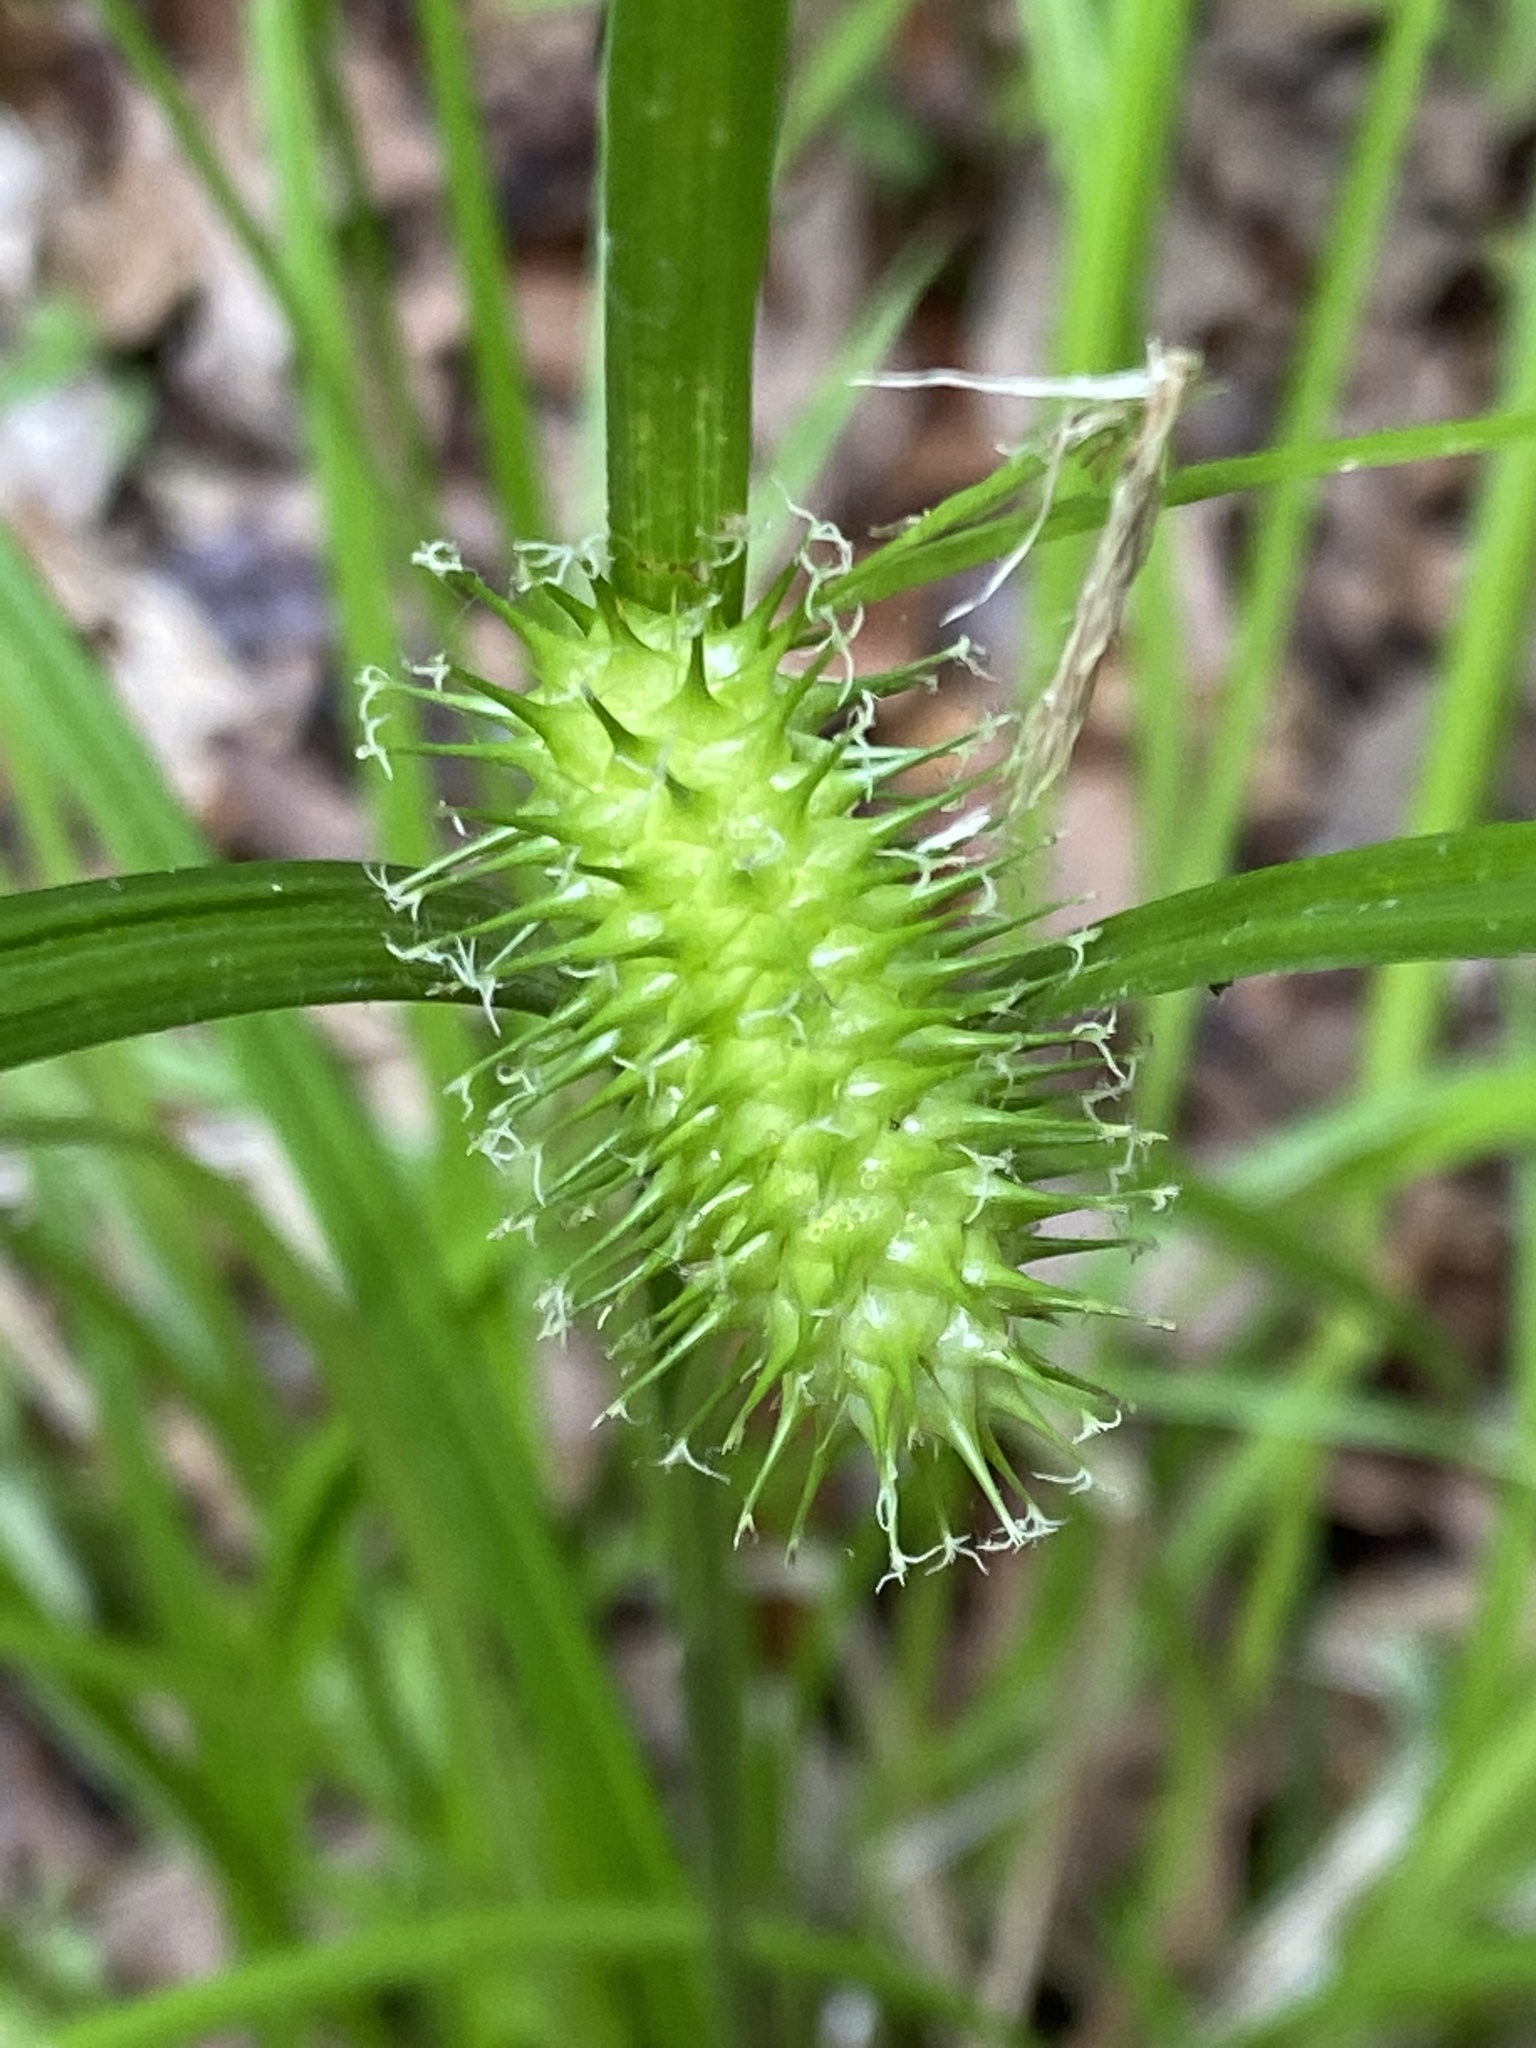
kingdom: Plantae
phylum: Tracheophyta
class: Liliopsida
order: Poales
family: Cyperaceae
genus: Carex
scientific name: Carex lurida
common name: Sallow sedge
